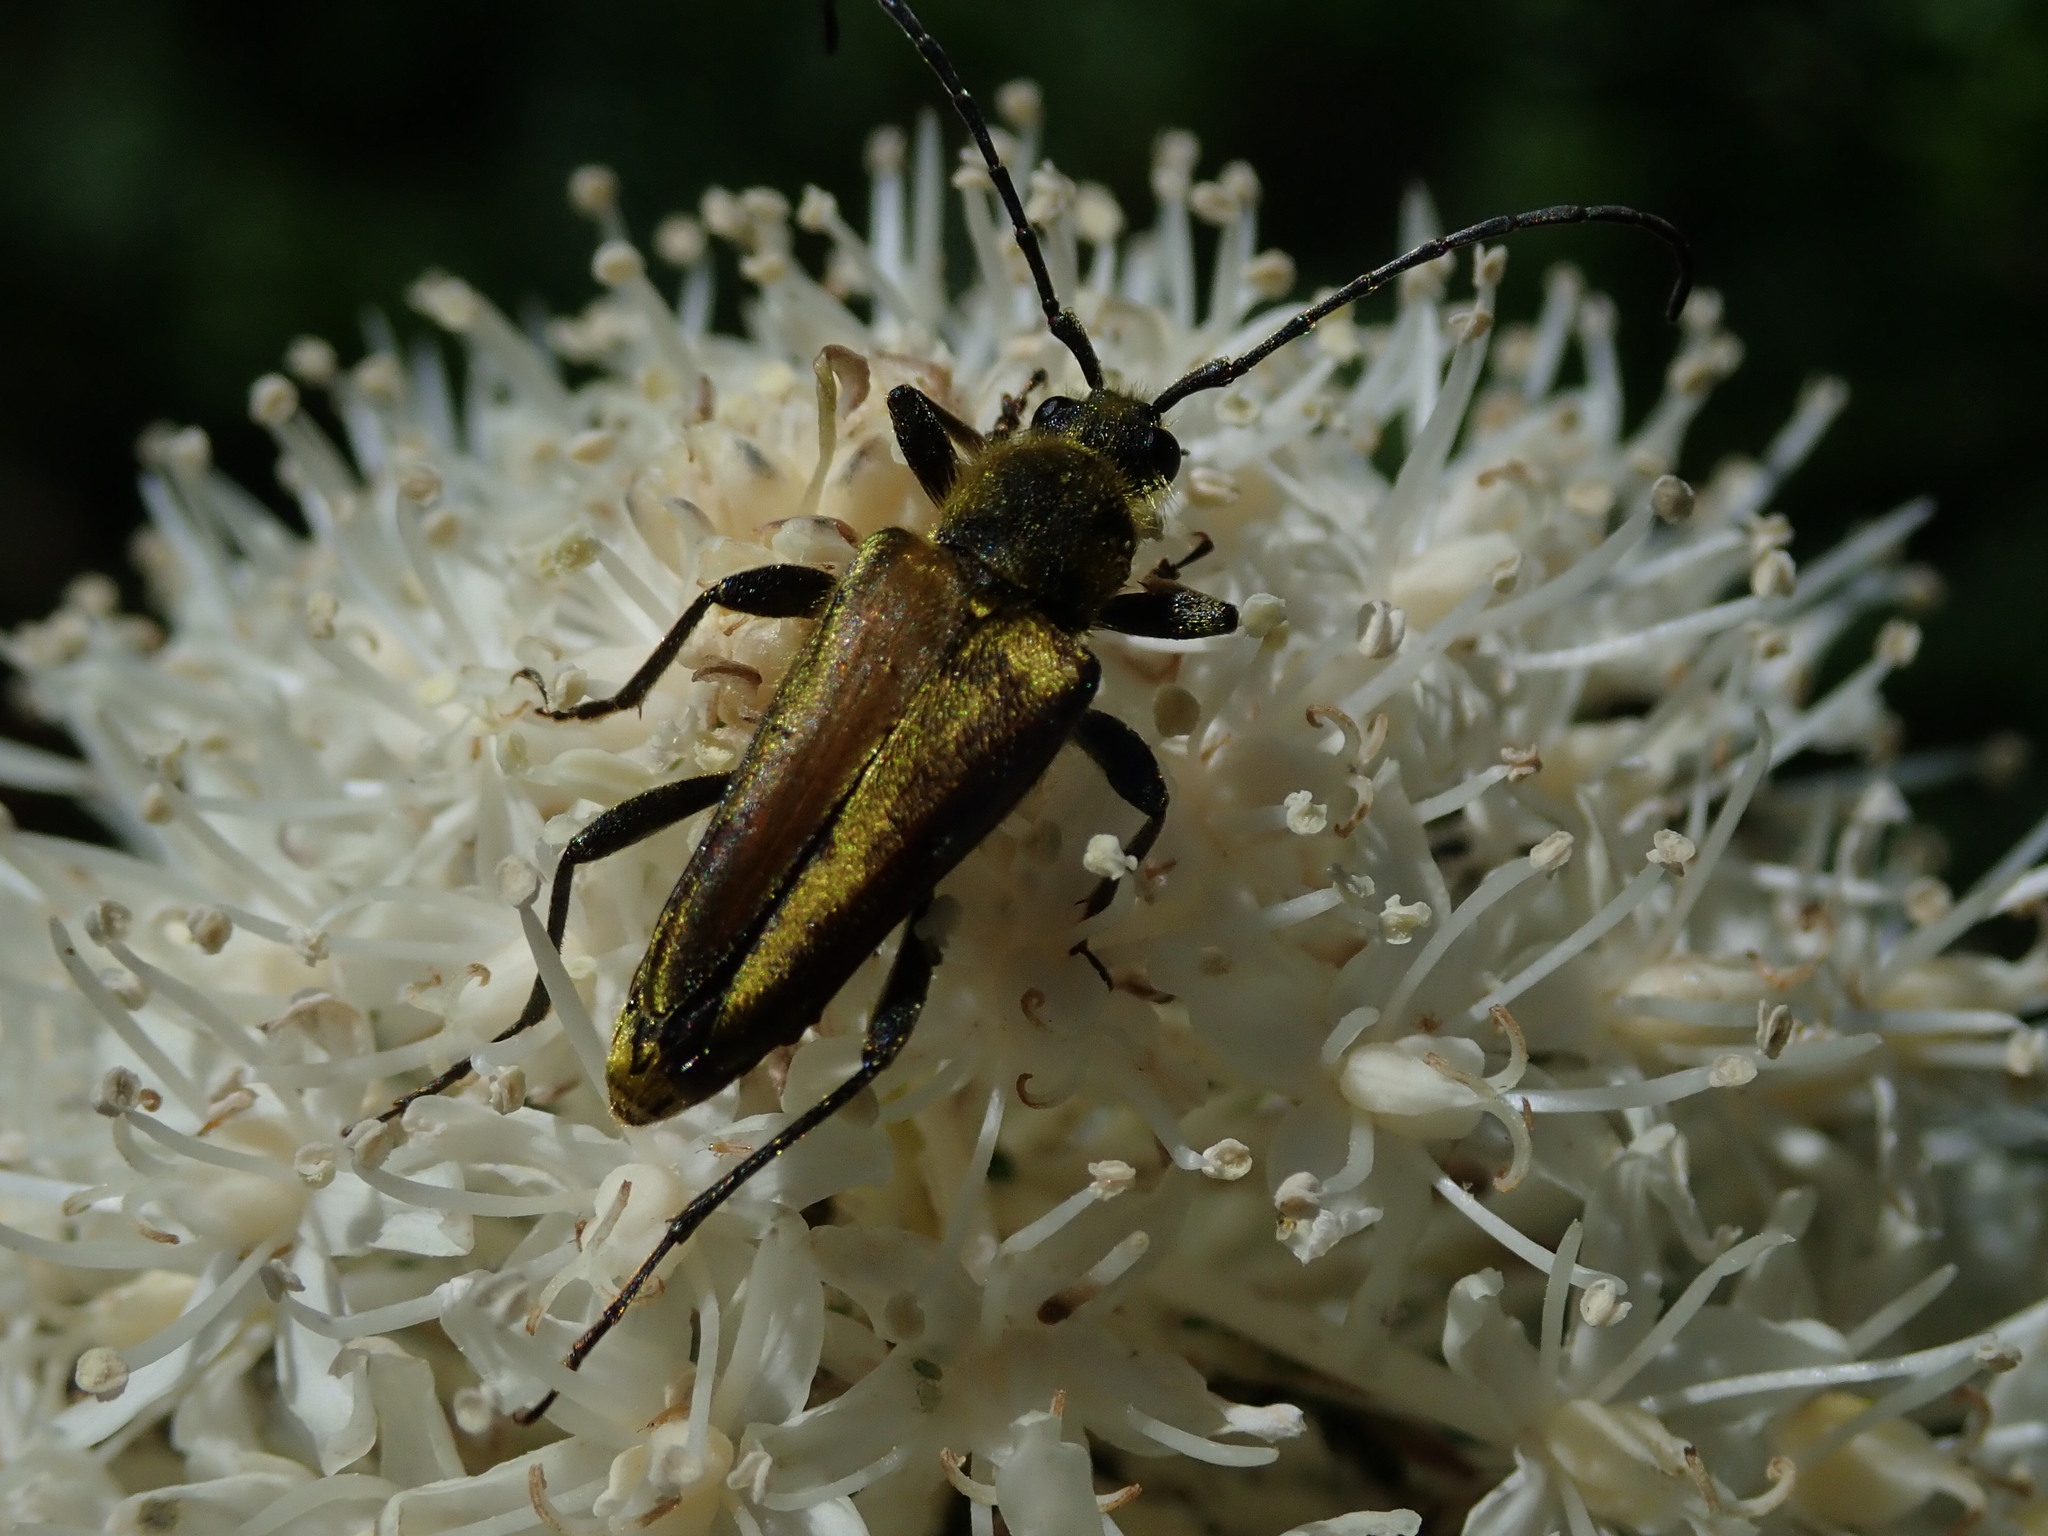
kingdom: Animalia
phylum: Arthropoda
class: Insecta
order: Coleoptera
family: Cerambycidae
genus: Cosmosalia
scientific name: Cosmosalia chrysocoma
